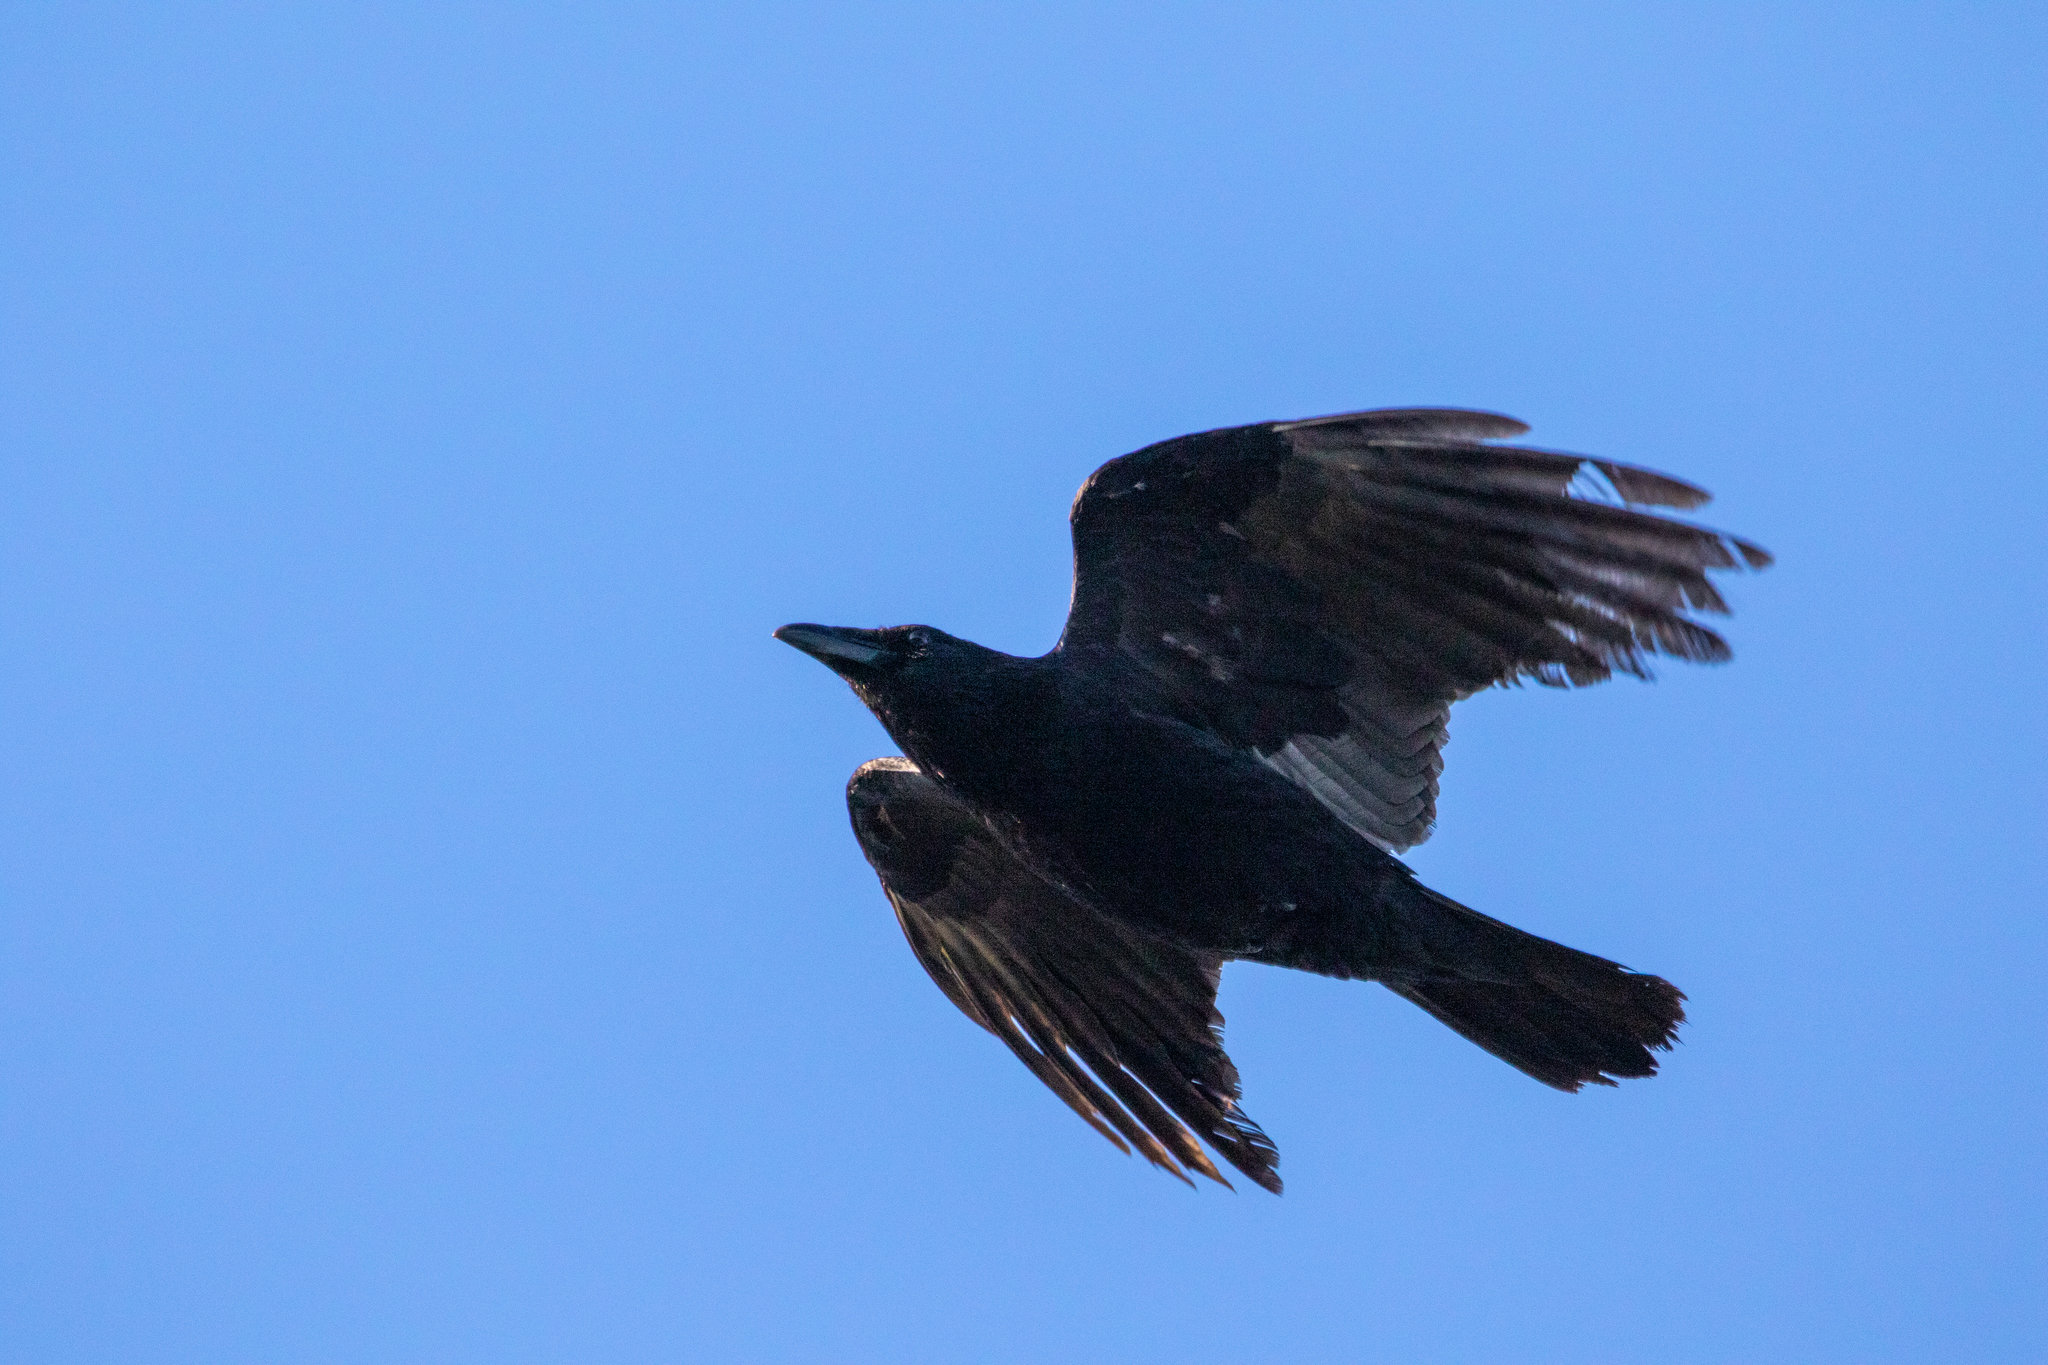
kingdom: Animalia
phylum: Chordata
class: Aves
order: Passeriformes
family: Corvidae
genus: Corvus
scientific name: Corvus corone
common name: Carrion crow
